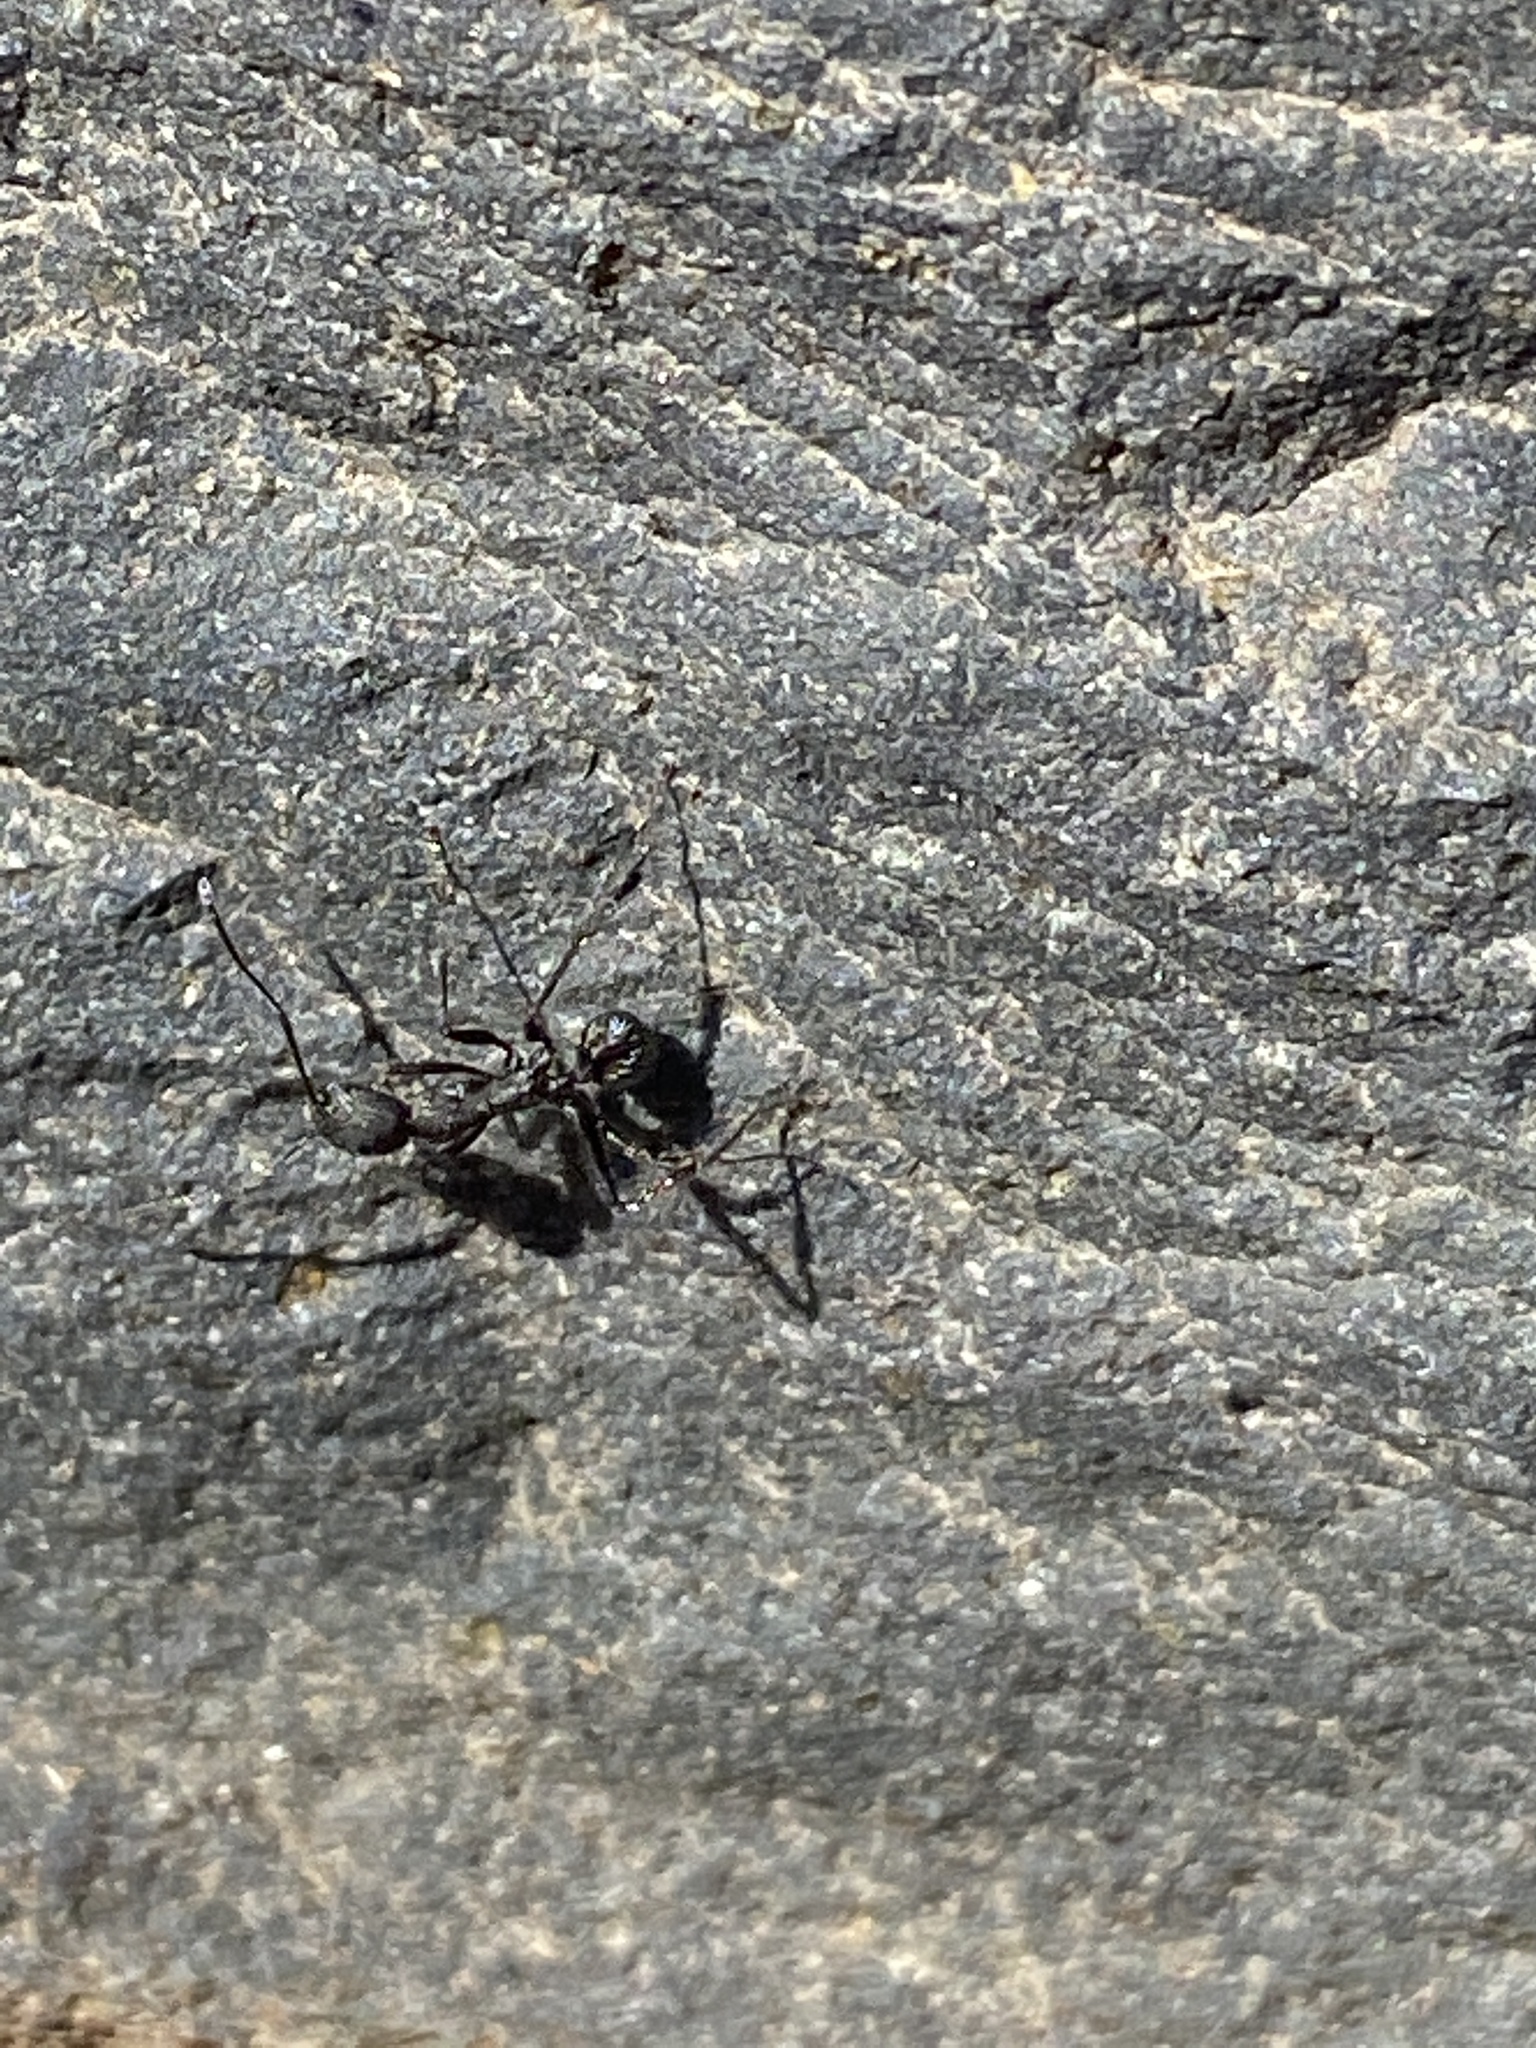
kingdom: Animalia
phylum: Arthropoda
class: Insecta
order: Hymenoptera
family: Formicidae
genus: Aphaenogaster
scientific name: Aphaenogaster senilis
